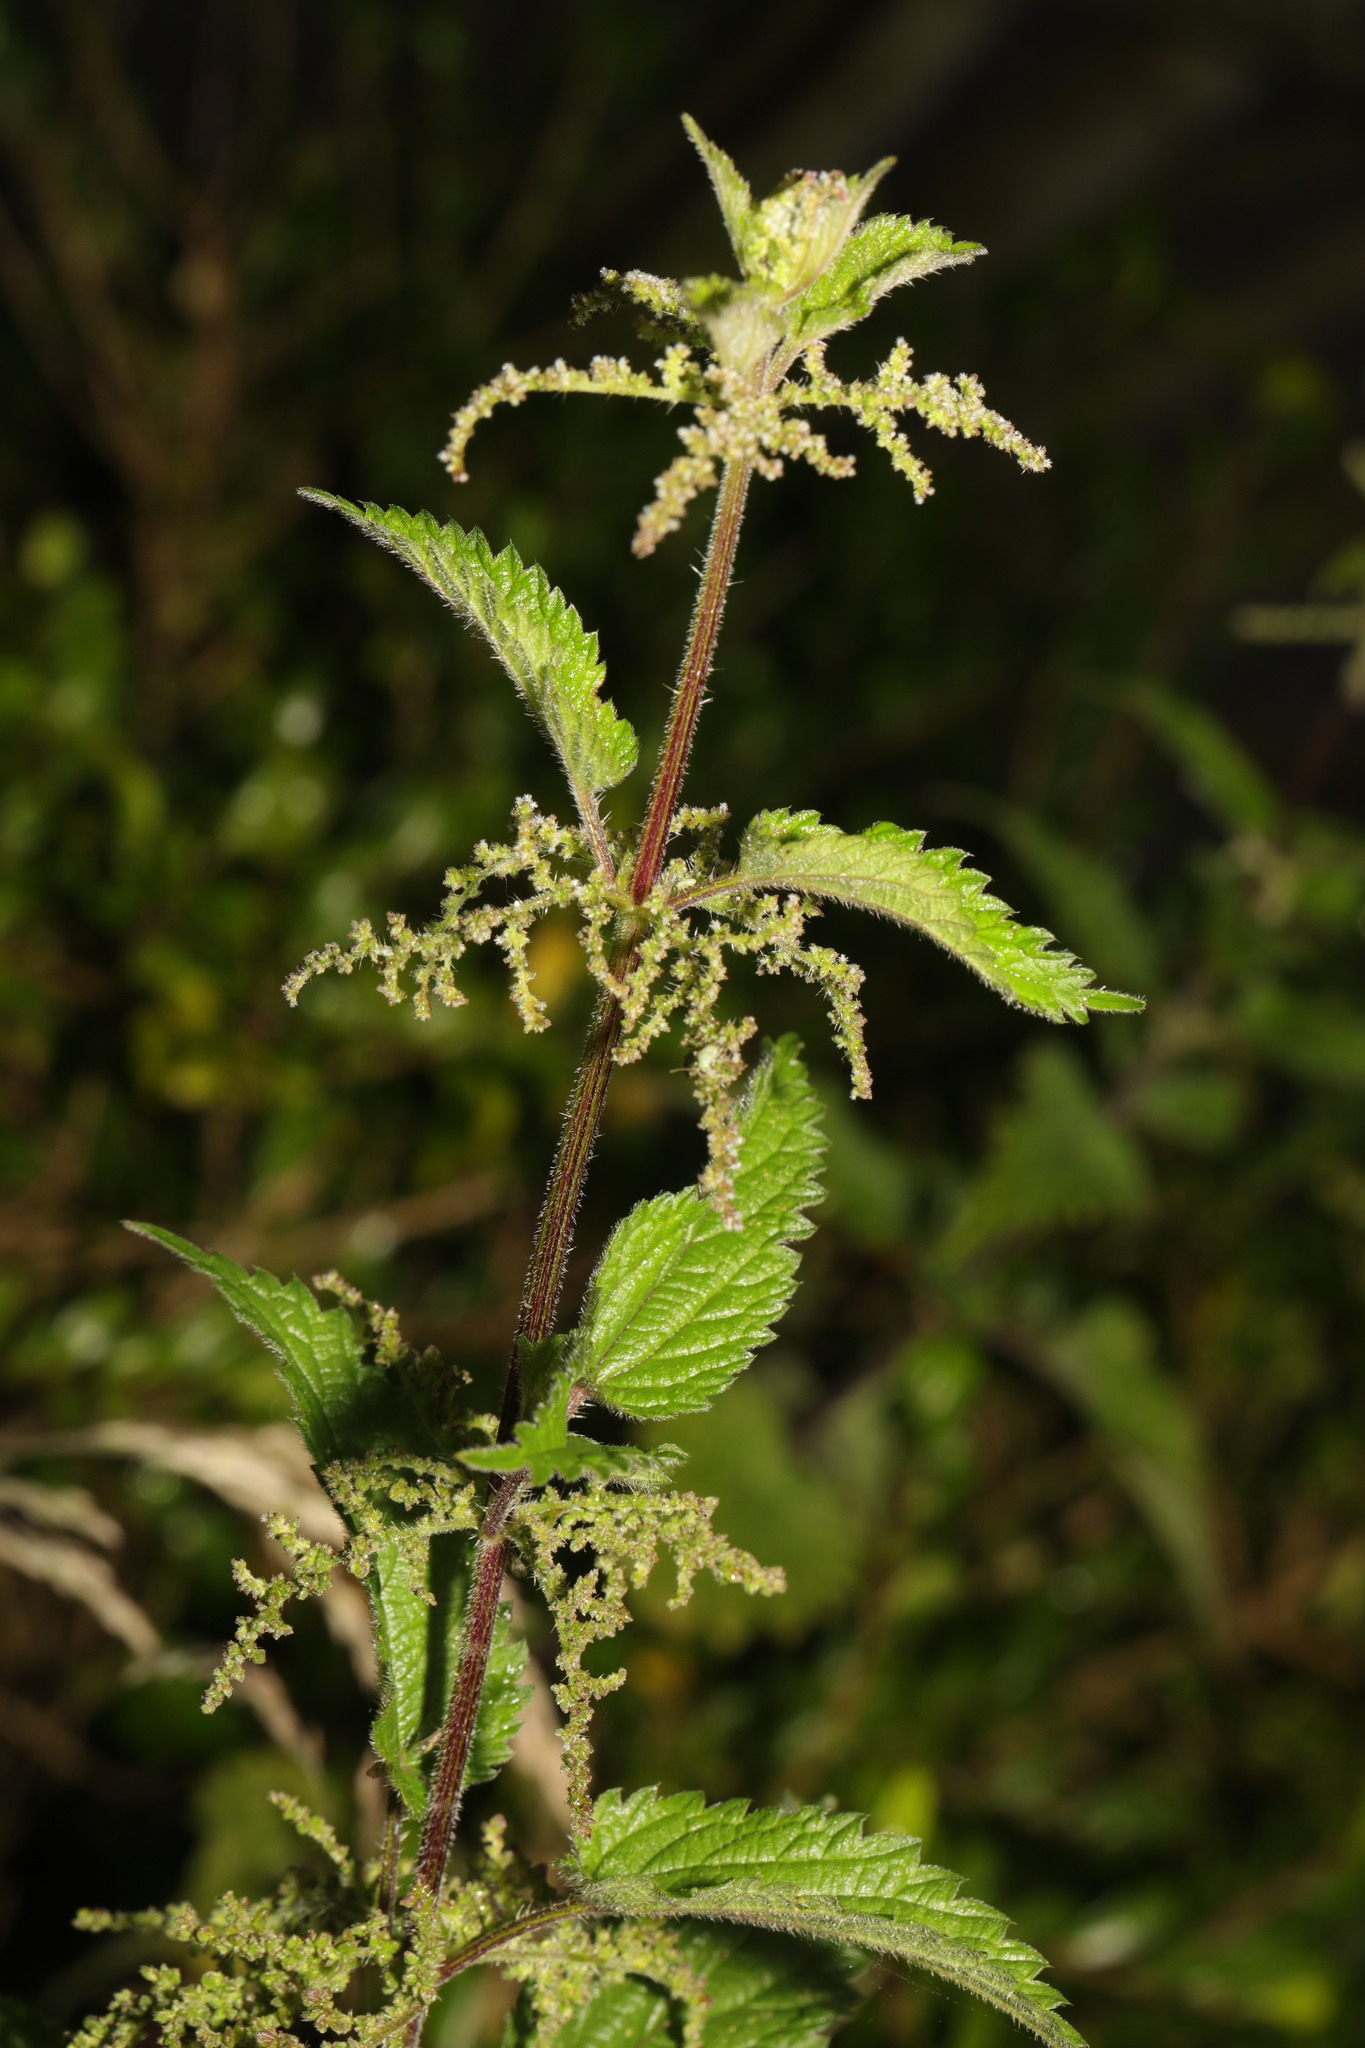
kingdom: Plantae
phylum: Tracheophyta
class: Magnoliopsida
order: Rosales
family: Urticaceae
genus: Urtica
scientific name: Urtica dioica
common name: Common nettle
